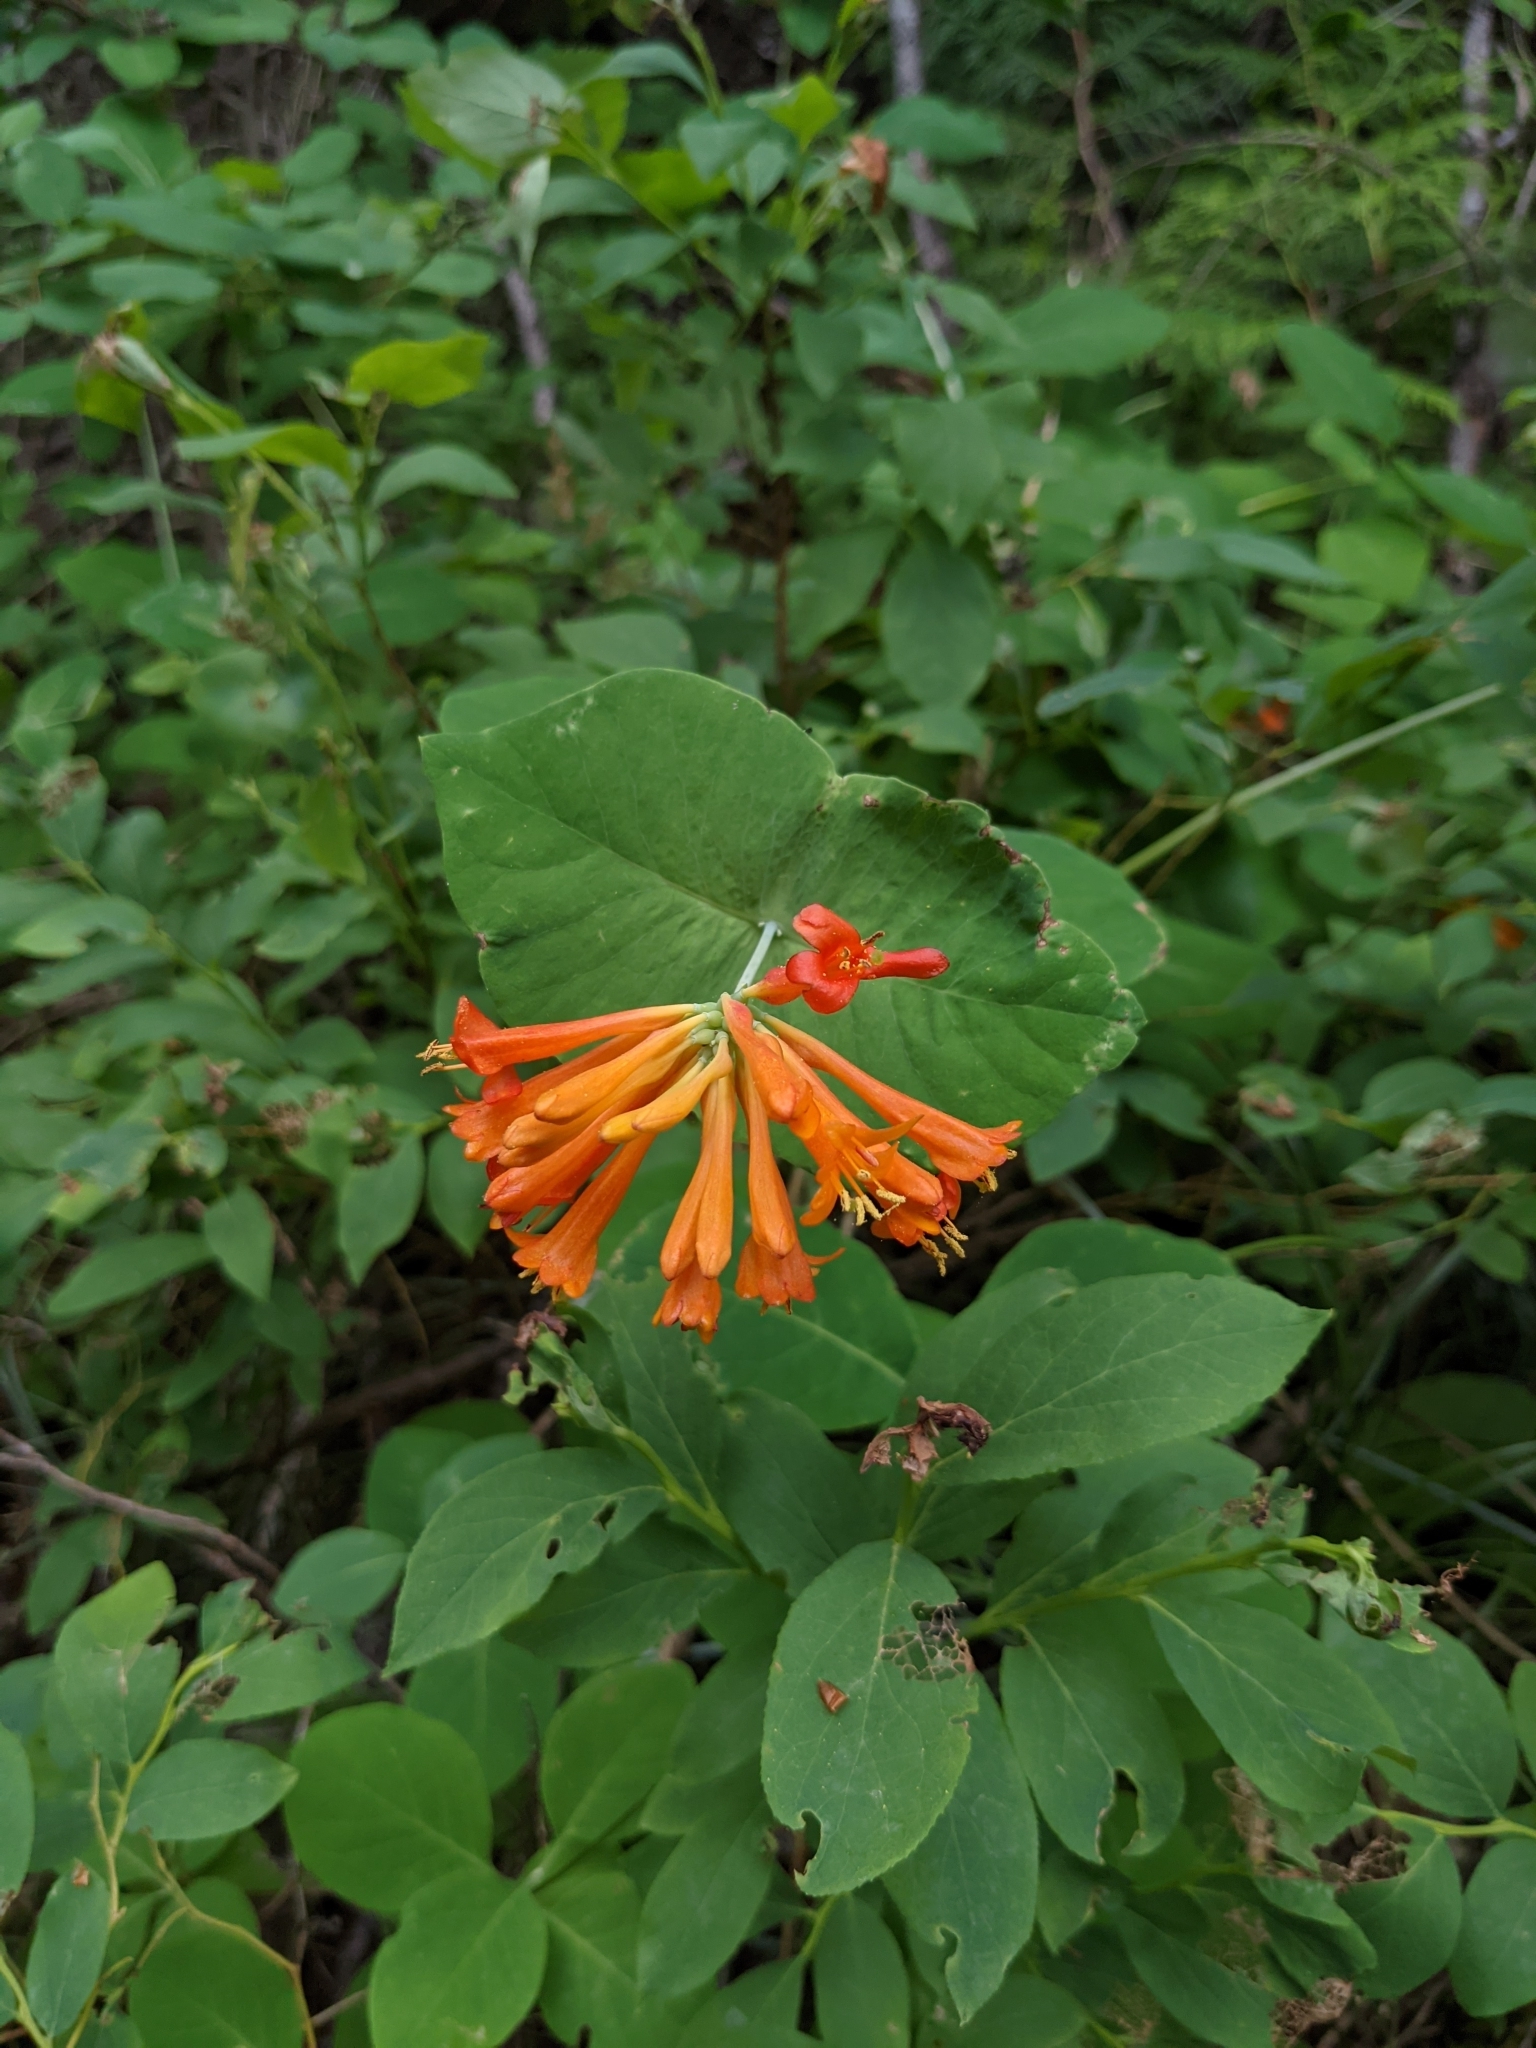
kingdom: Plantae
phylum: Tracheophyta
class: Magnoliopsida
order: Dipsacales
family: Caprifoliaceae
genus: Lonicera
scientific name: Lonicera ciliosa
